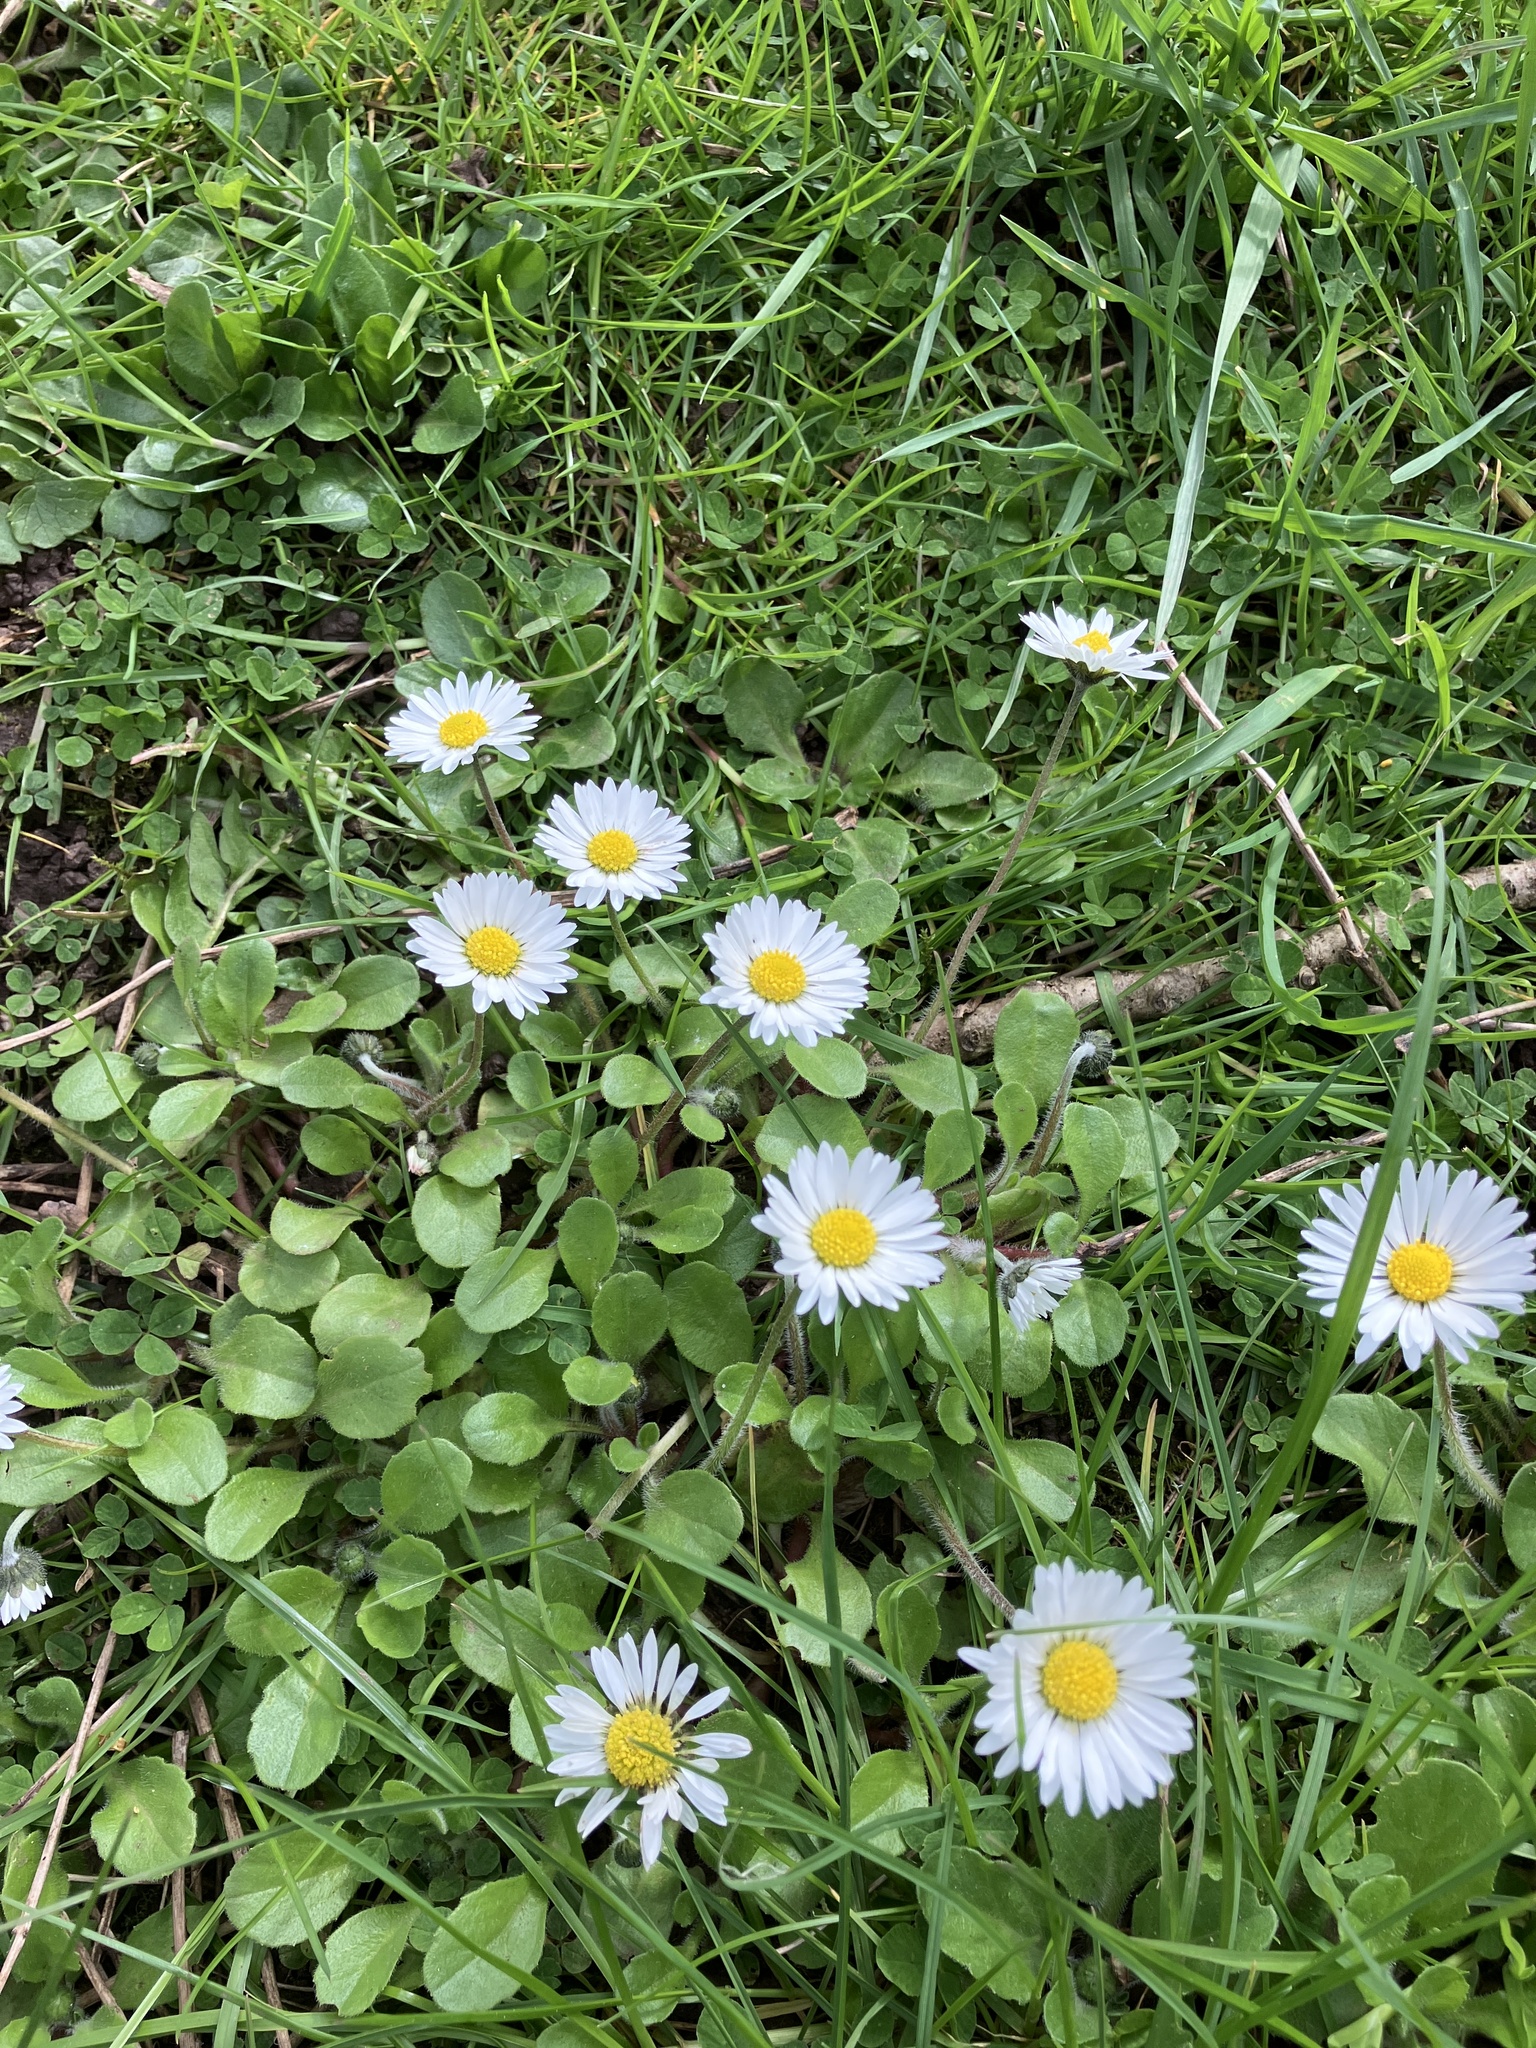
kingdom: Plantae
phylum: Tracheophyta
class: Magnoliopsida
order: Asterales
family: Asteraceae
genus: Bellis
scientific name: Bellis perennis
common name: Lawndaisy
